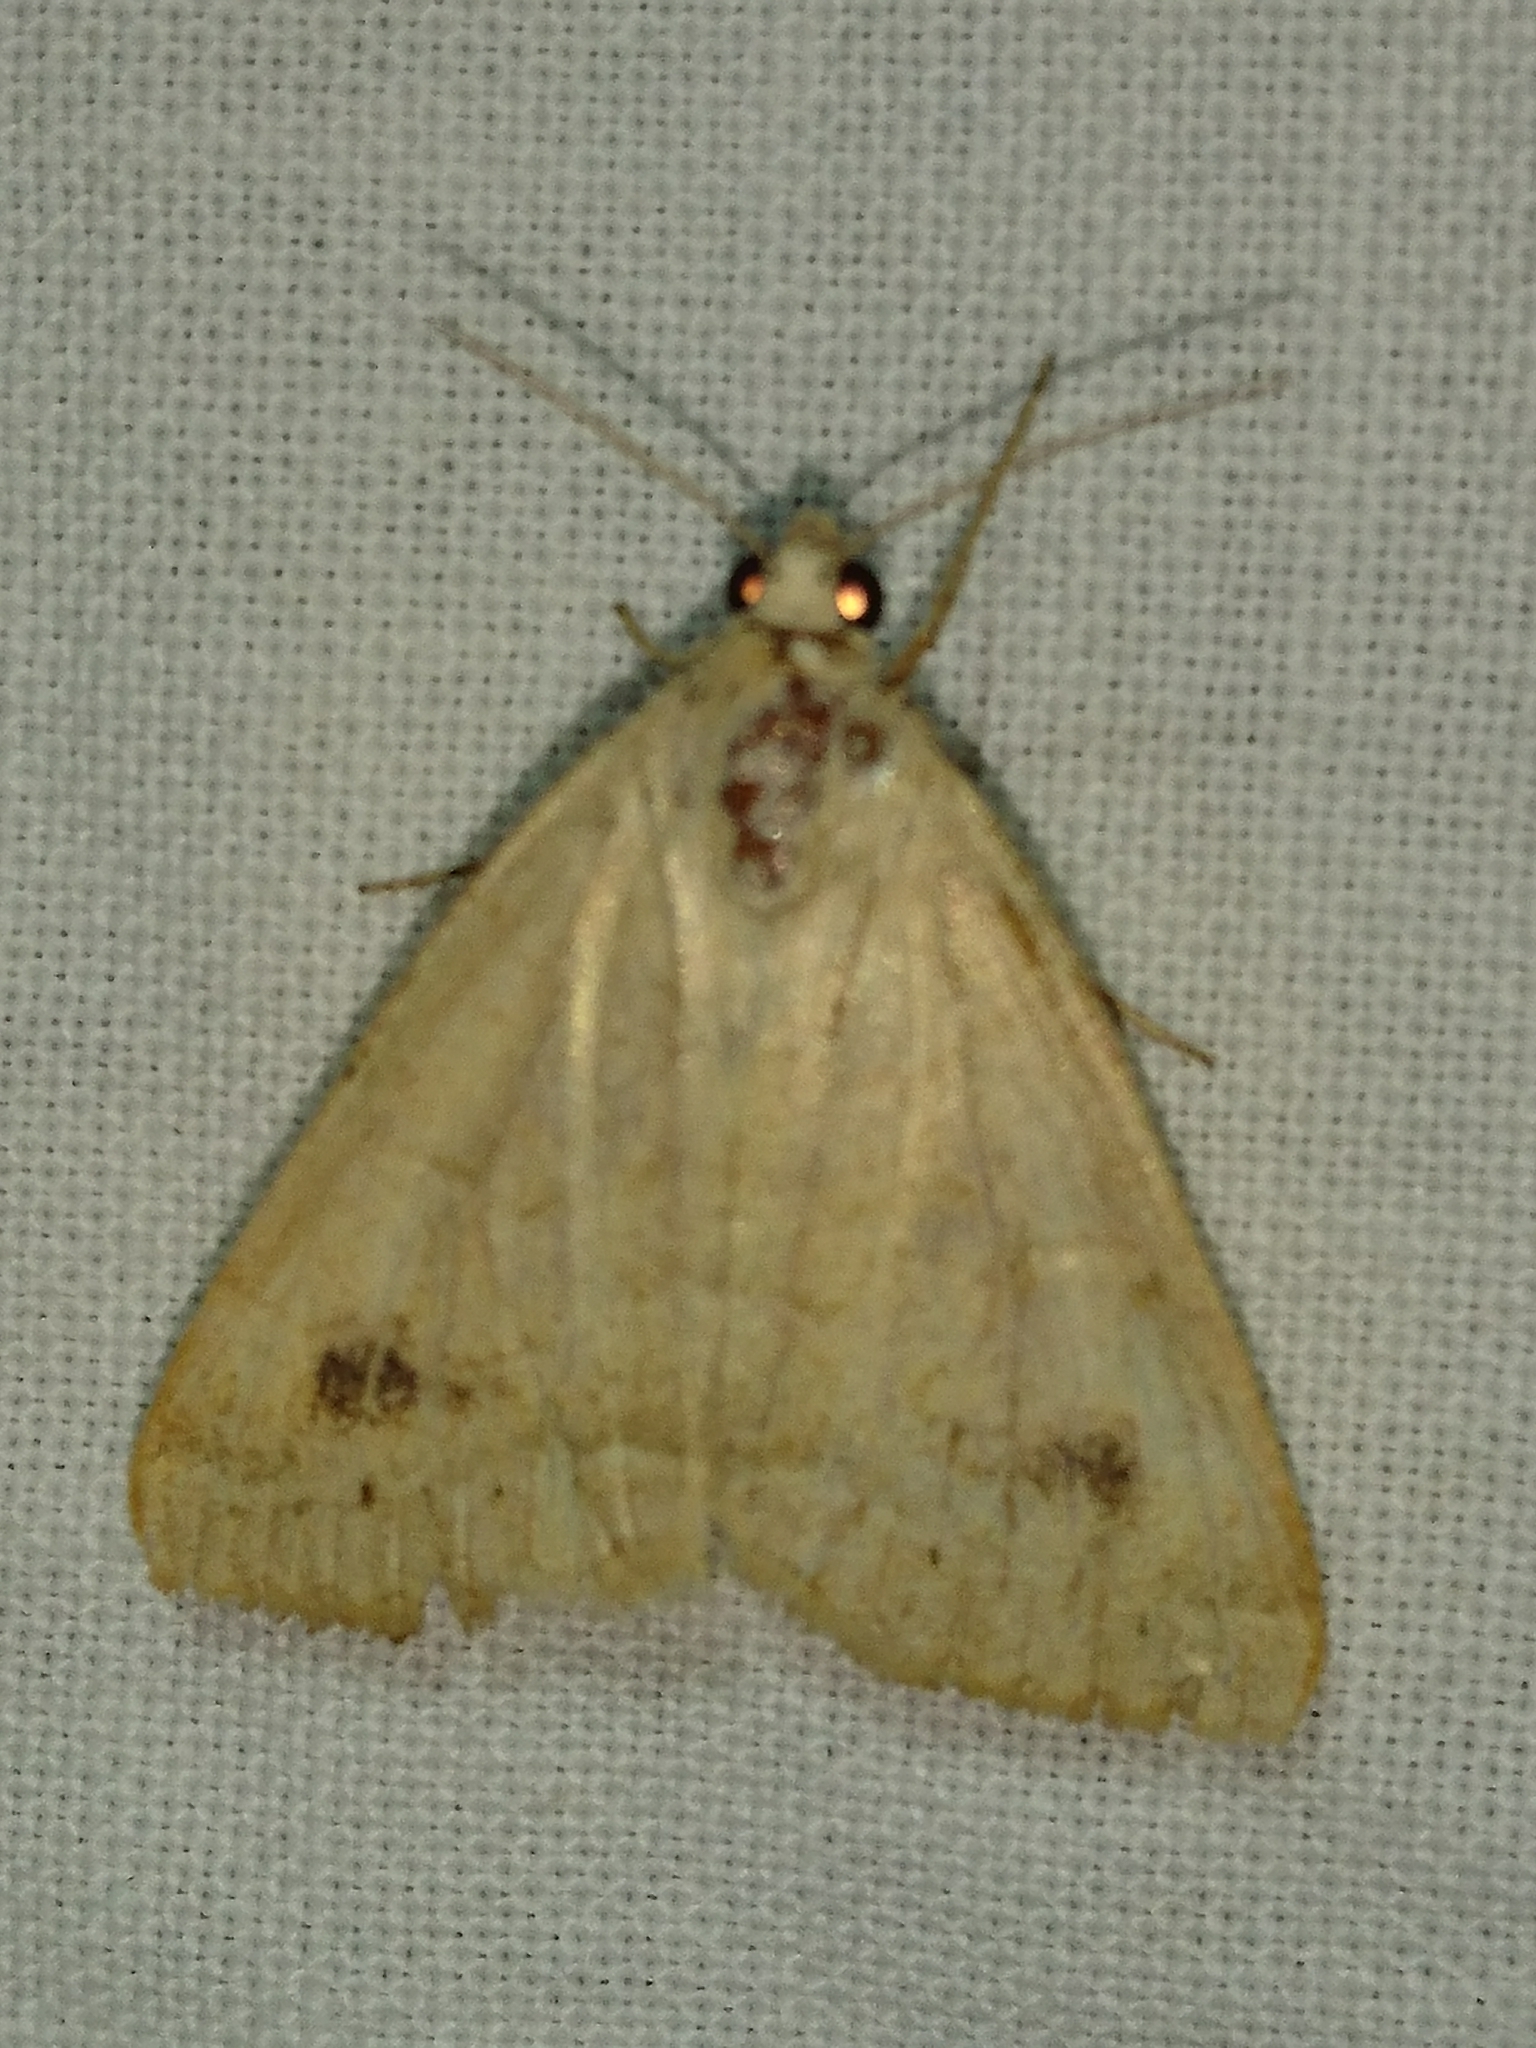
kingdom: Animalia
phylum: Arthropoda
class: Insecta
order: Lepidoptera
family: Erebidae
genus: Caenurgia
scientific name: Caenurgia chloropha
